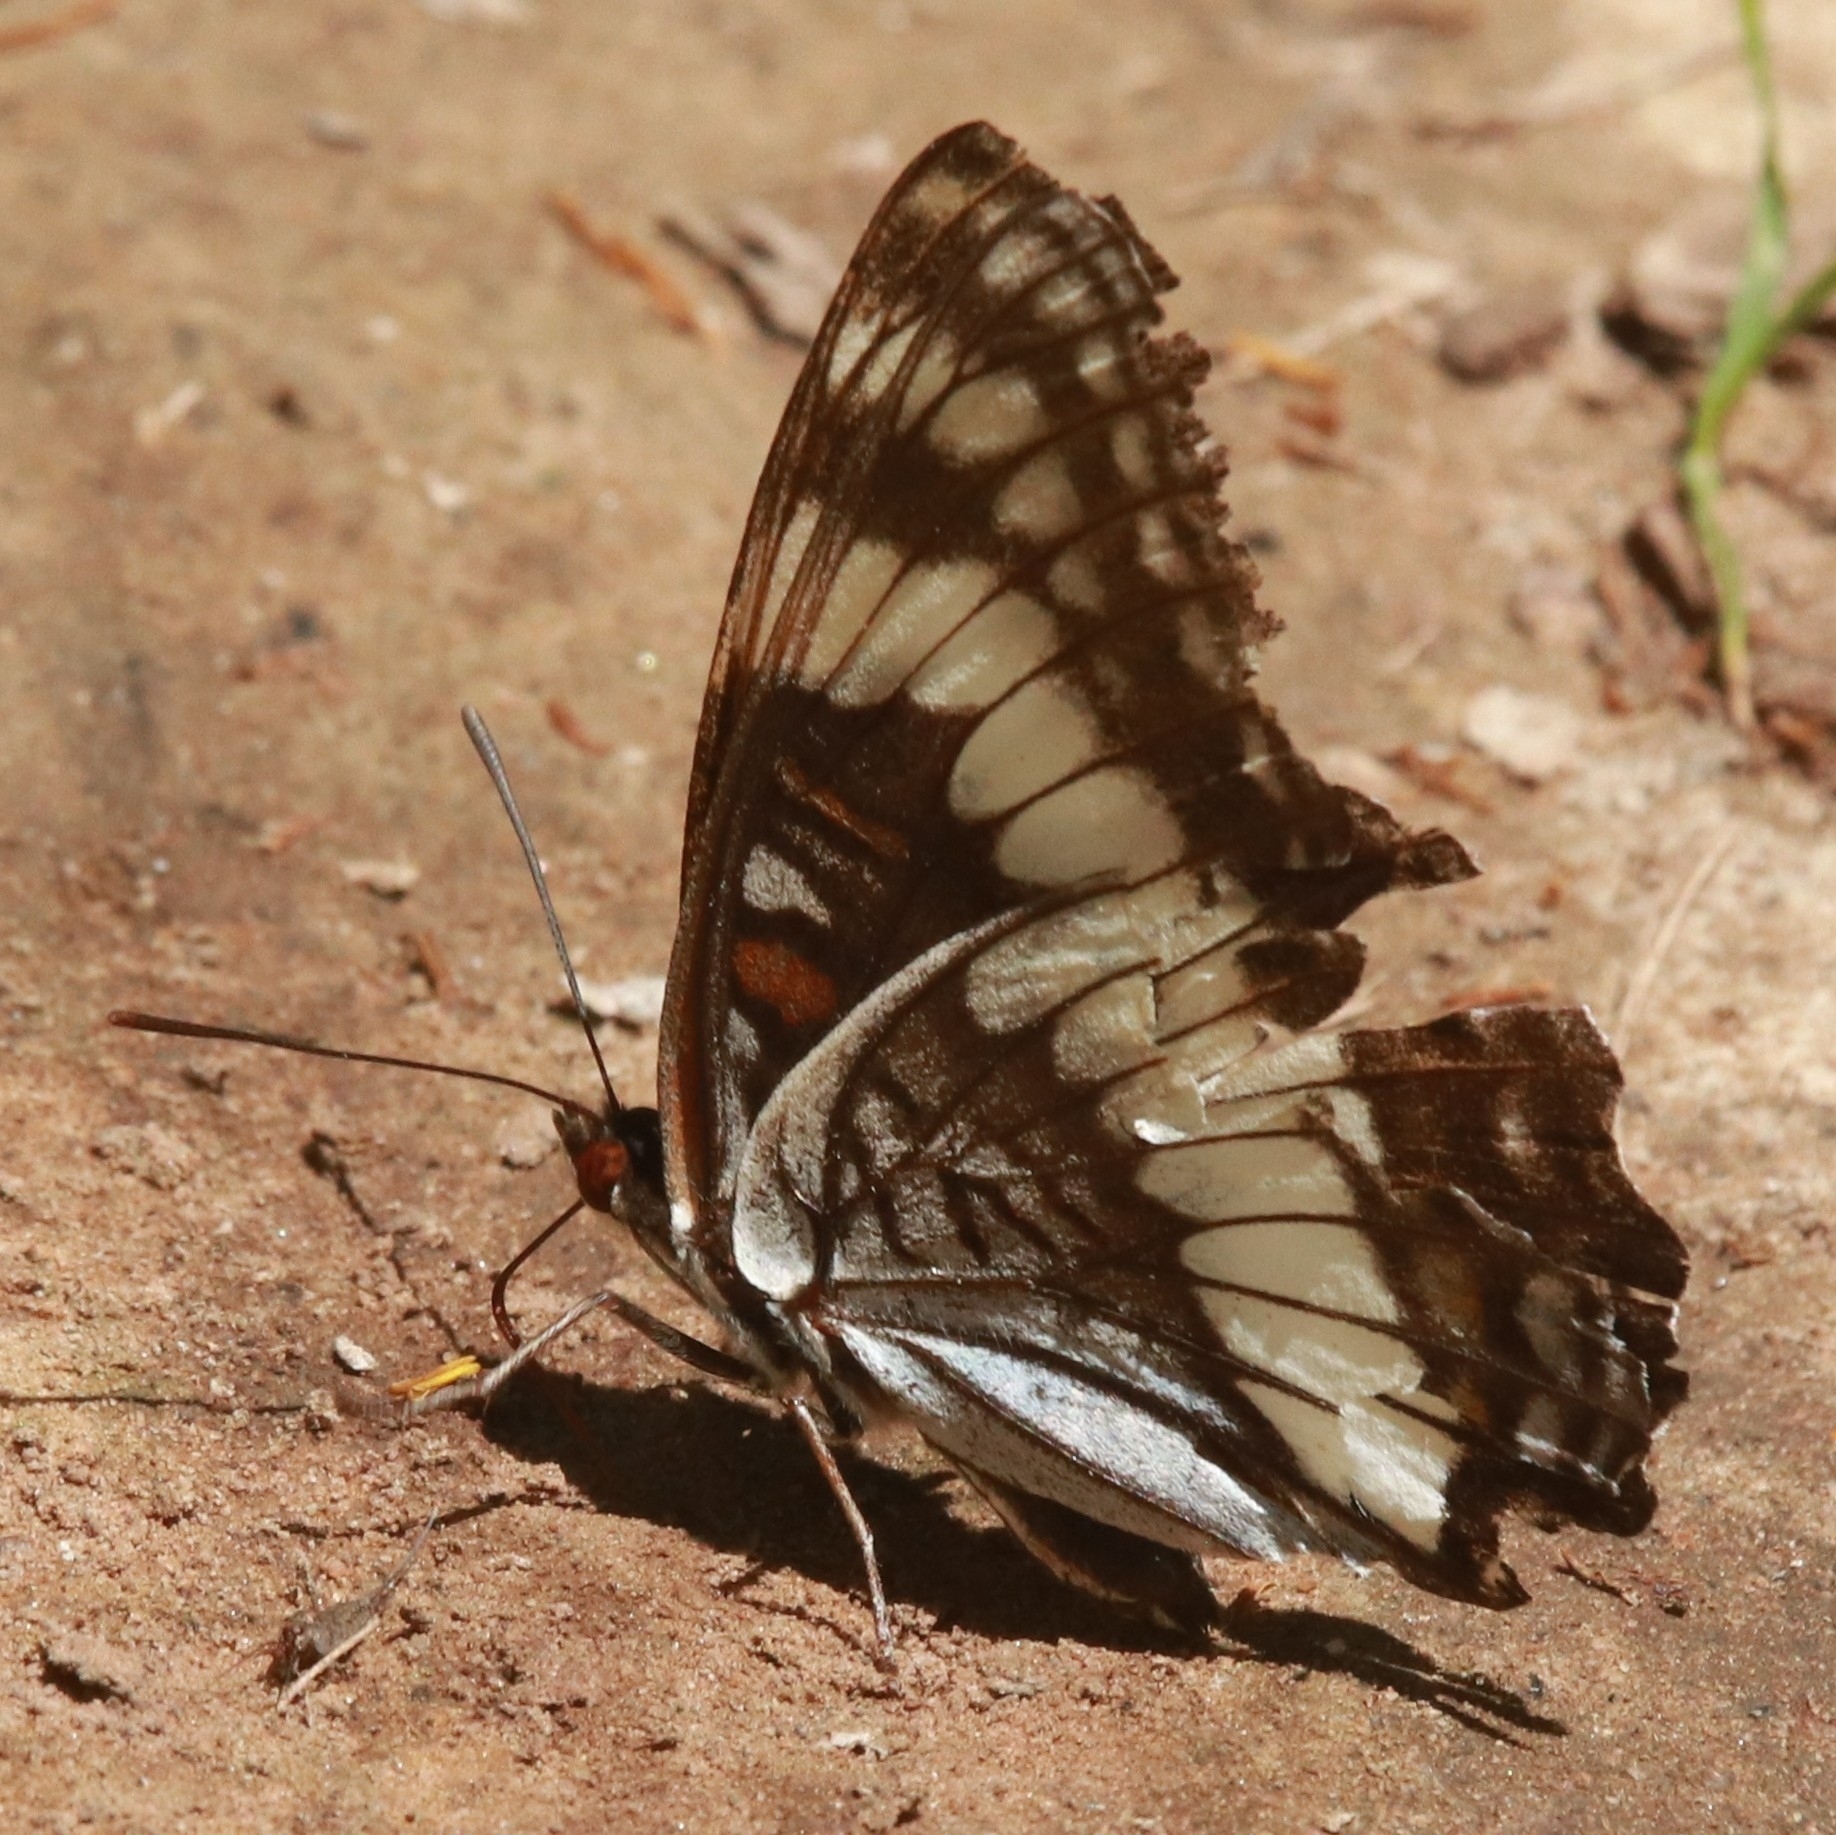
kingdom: Animalia
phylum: Arthropoda
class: Insecta
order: Lepidoptera
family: Nymphalidae
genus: Limenitis
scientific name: Limenitis weidemeyerii
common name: Weidemeyer's admiral
